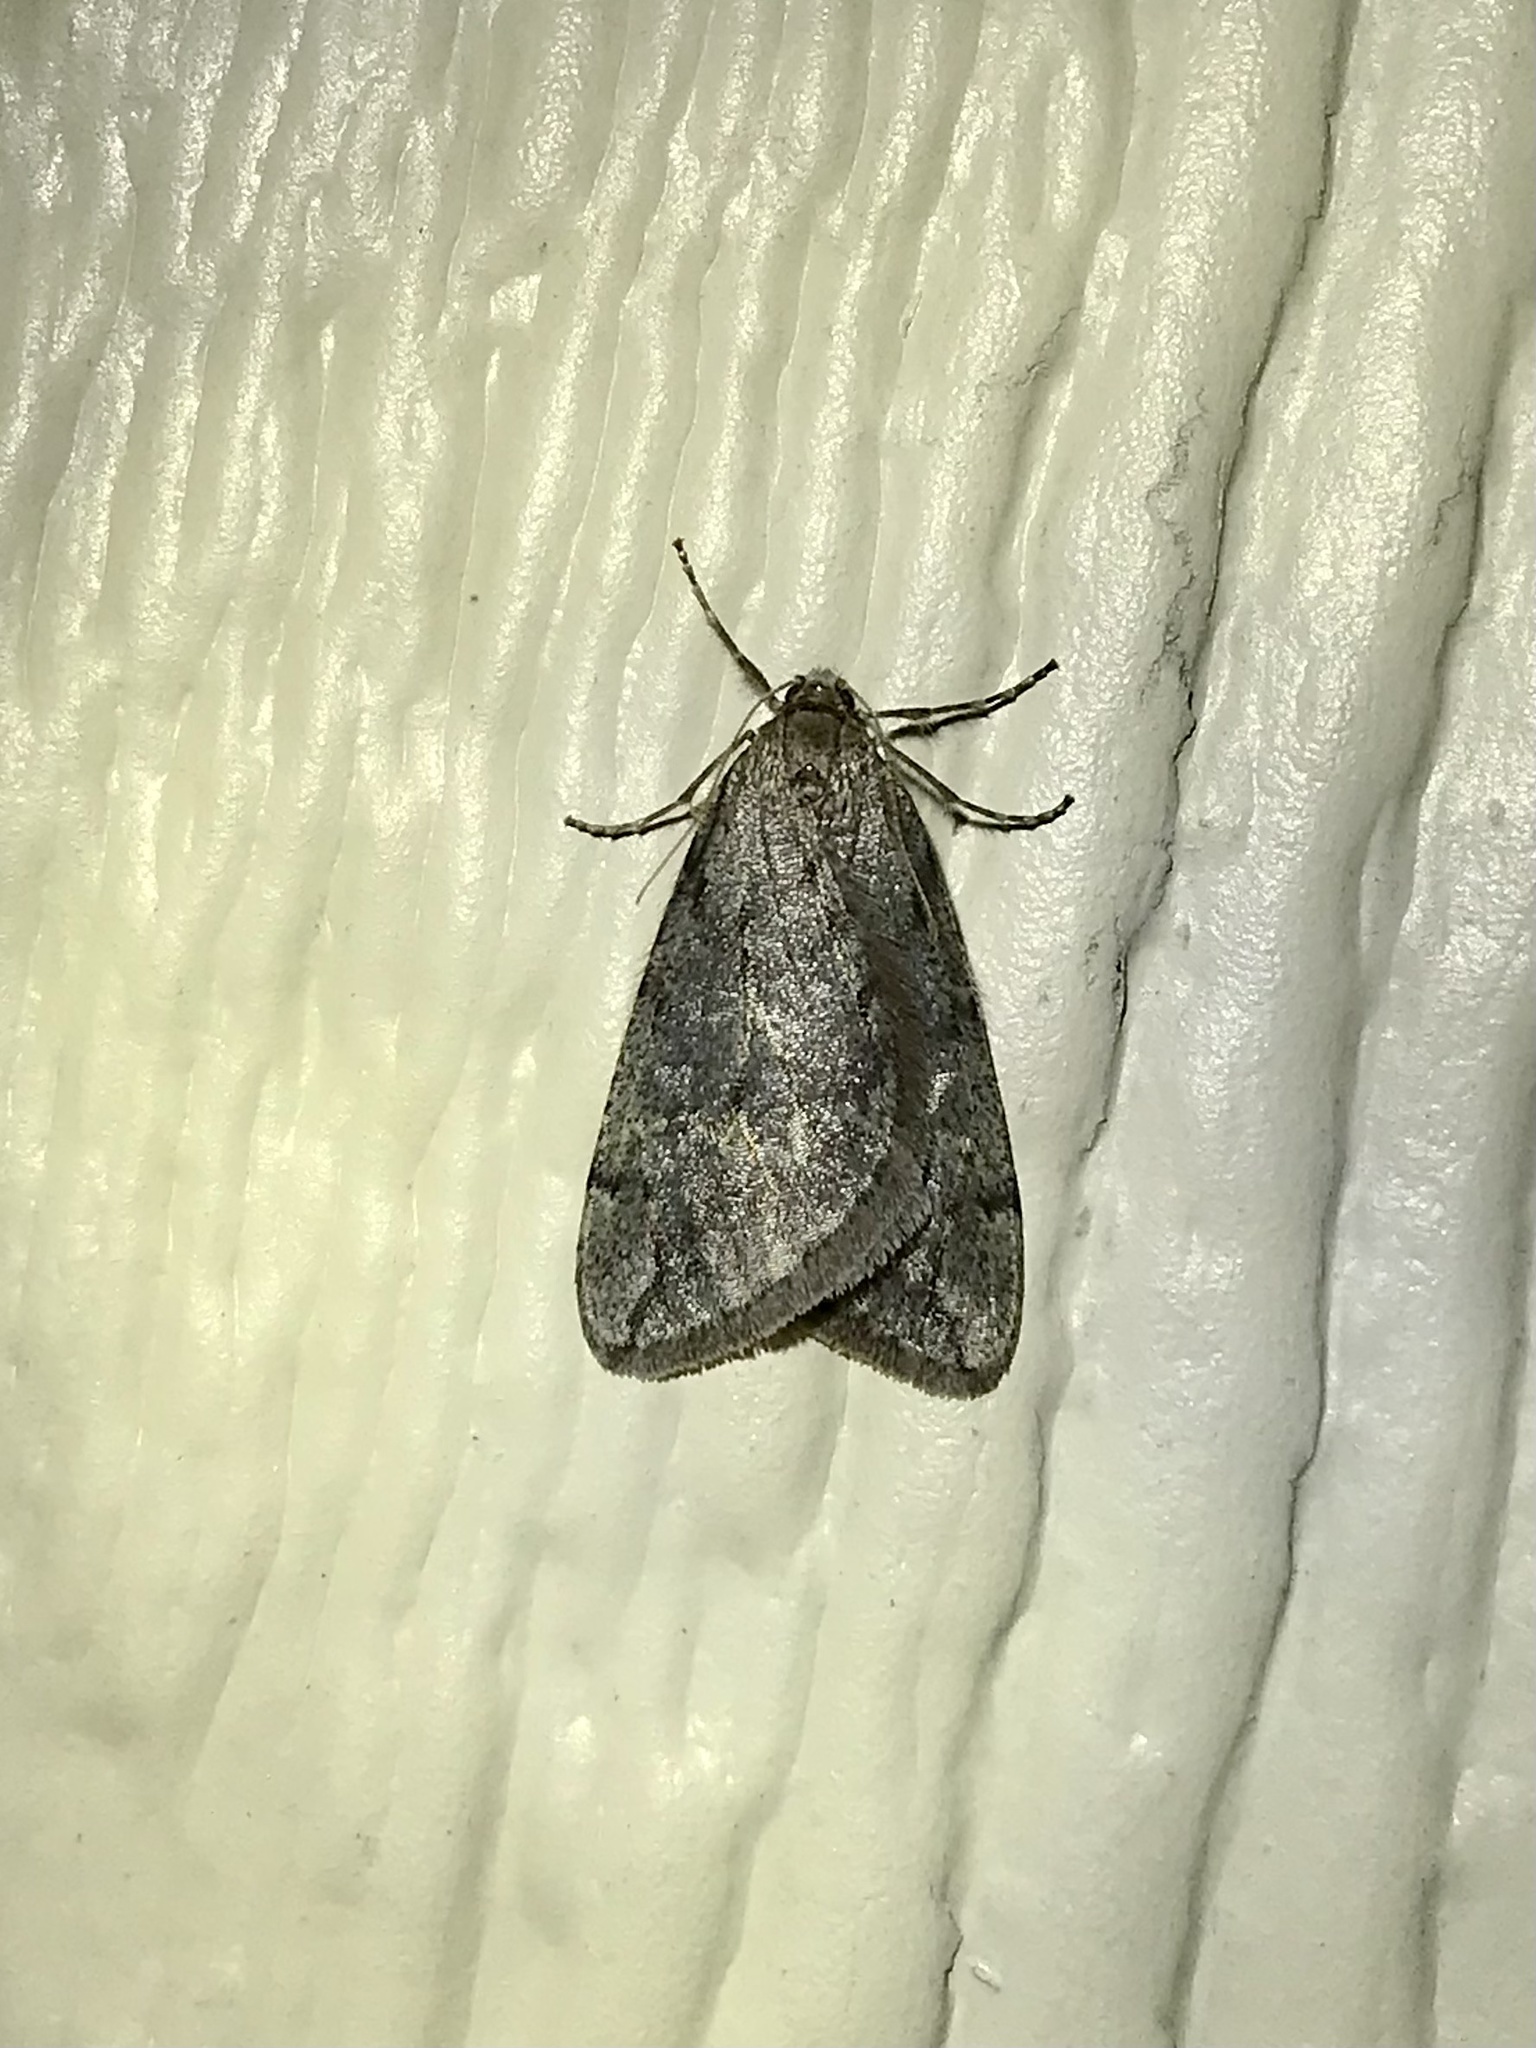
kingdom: Animalia
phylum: Arthropoda
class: Insecta
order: Lepidoptera
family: Geometridae
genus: Paleacrita
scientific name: Paleacrita vernata
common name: Spring cankerworm
